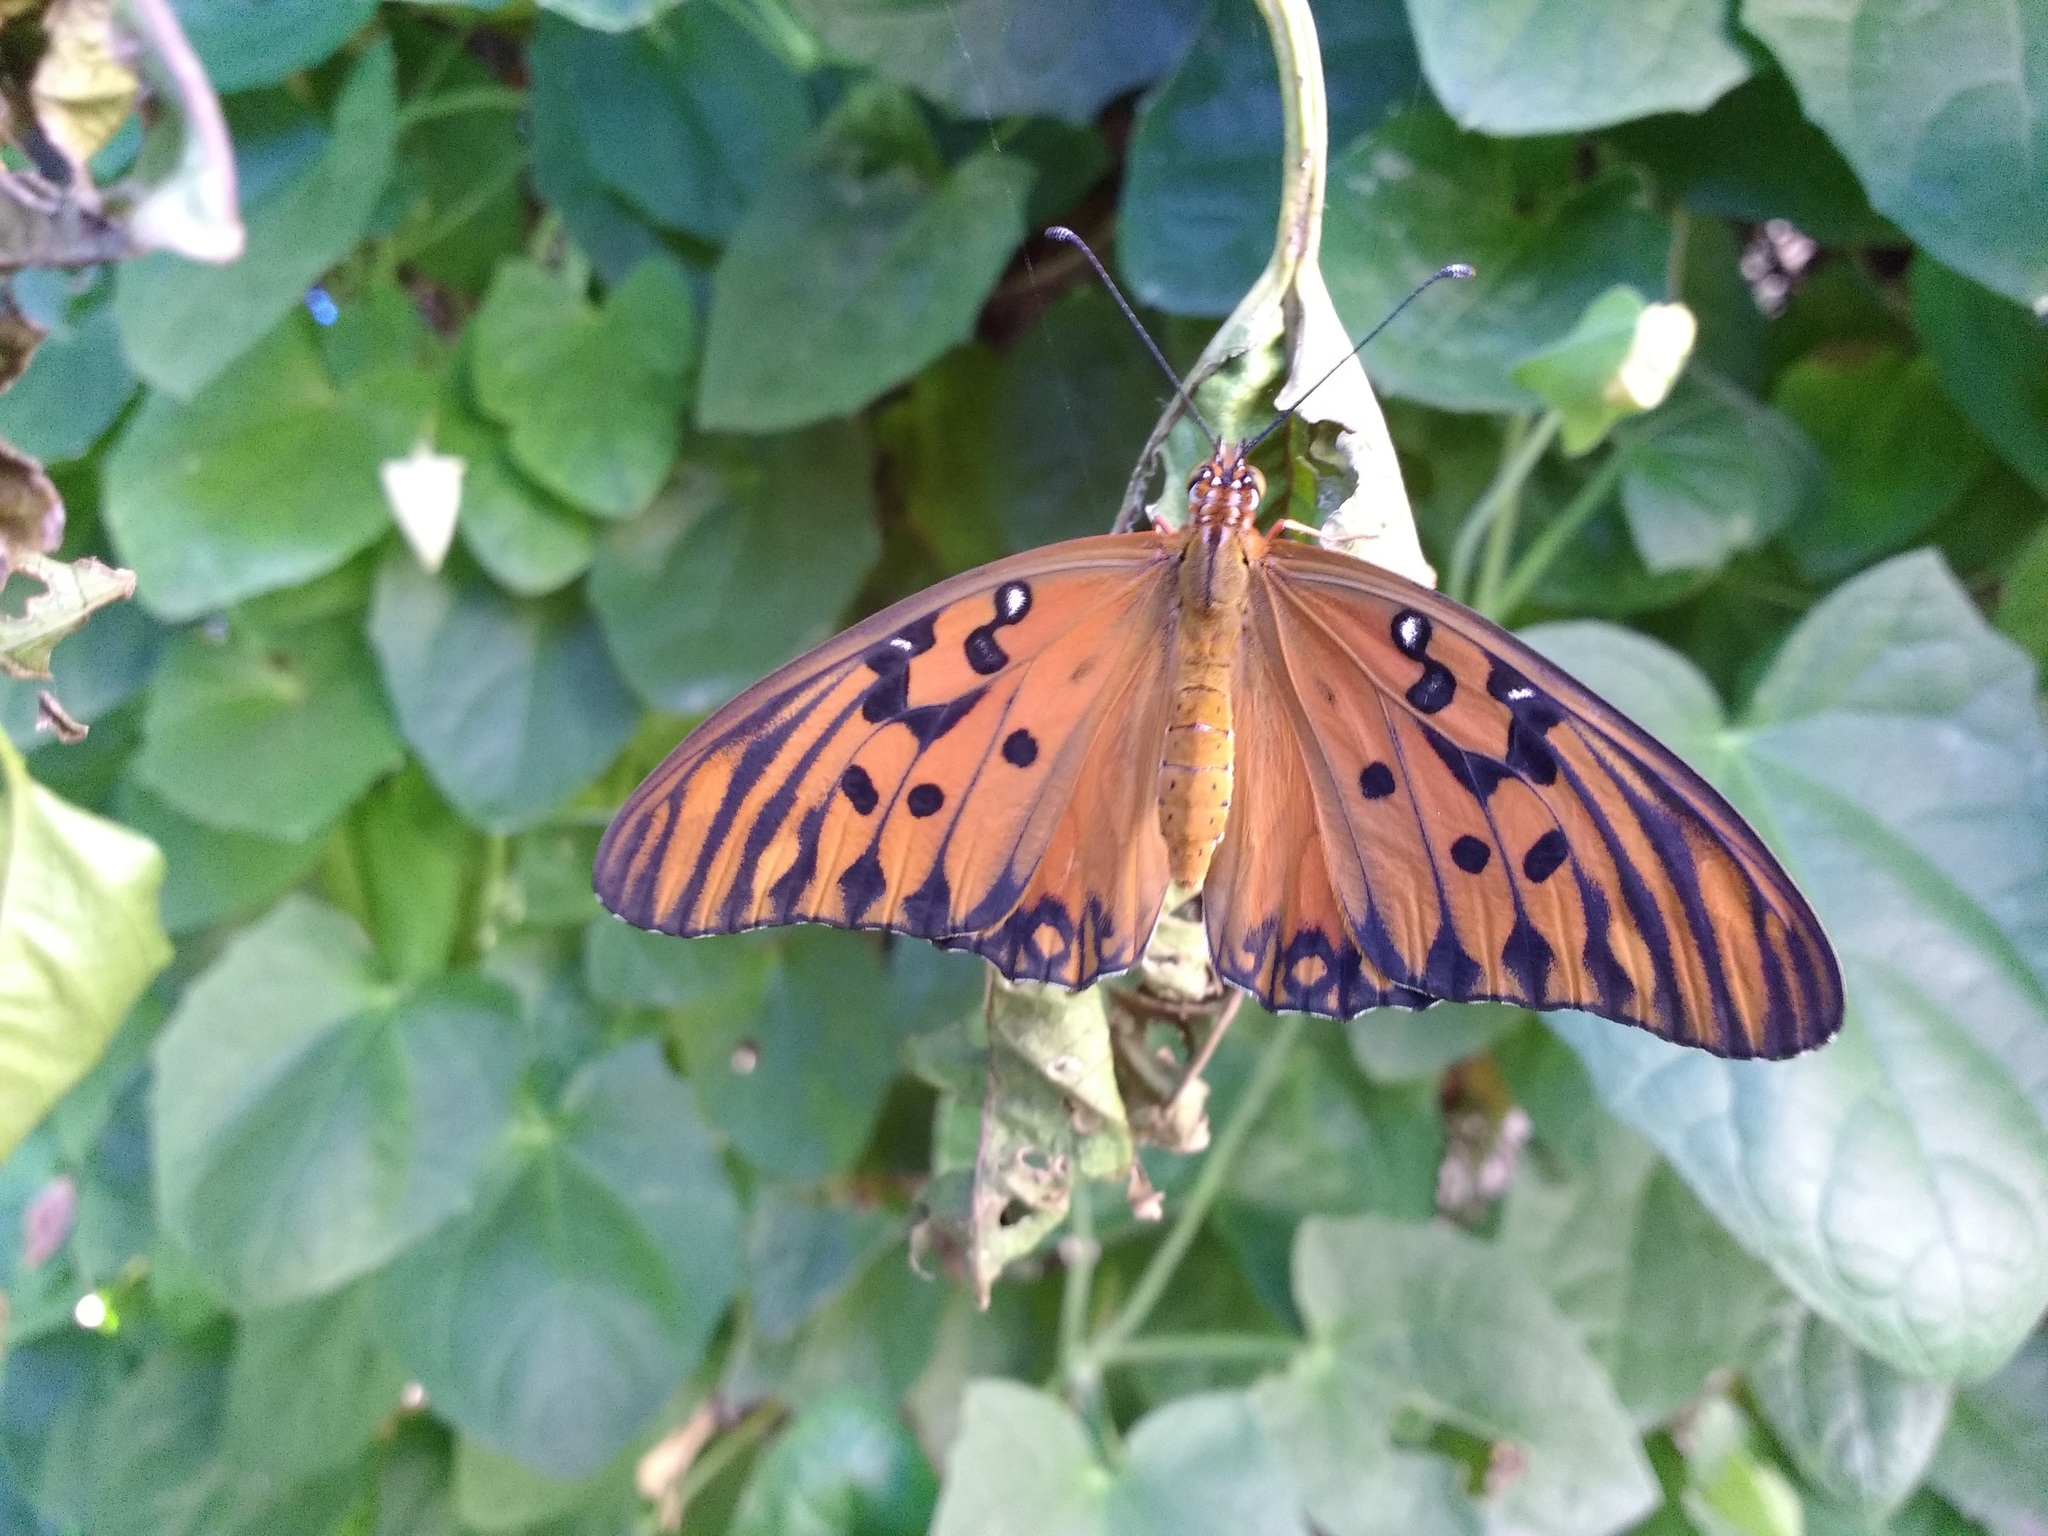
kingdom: Animalia
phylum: Arthropoda
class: Insecta
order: Lepidoptera
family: Nymphalidae
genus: Dione
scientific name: Dione vanillae
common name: Gulf fritillary
